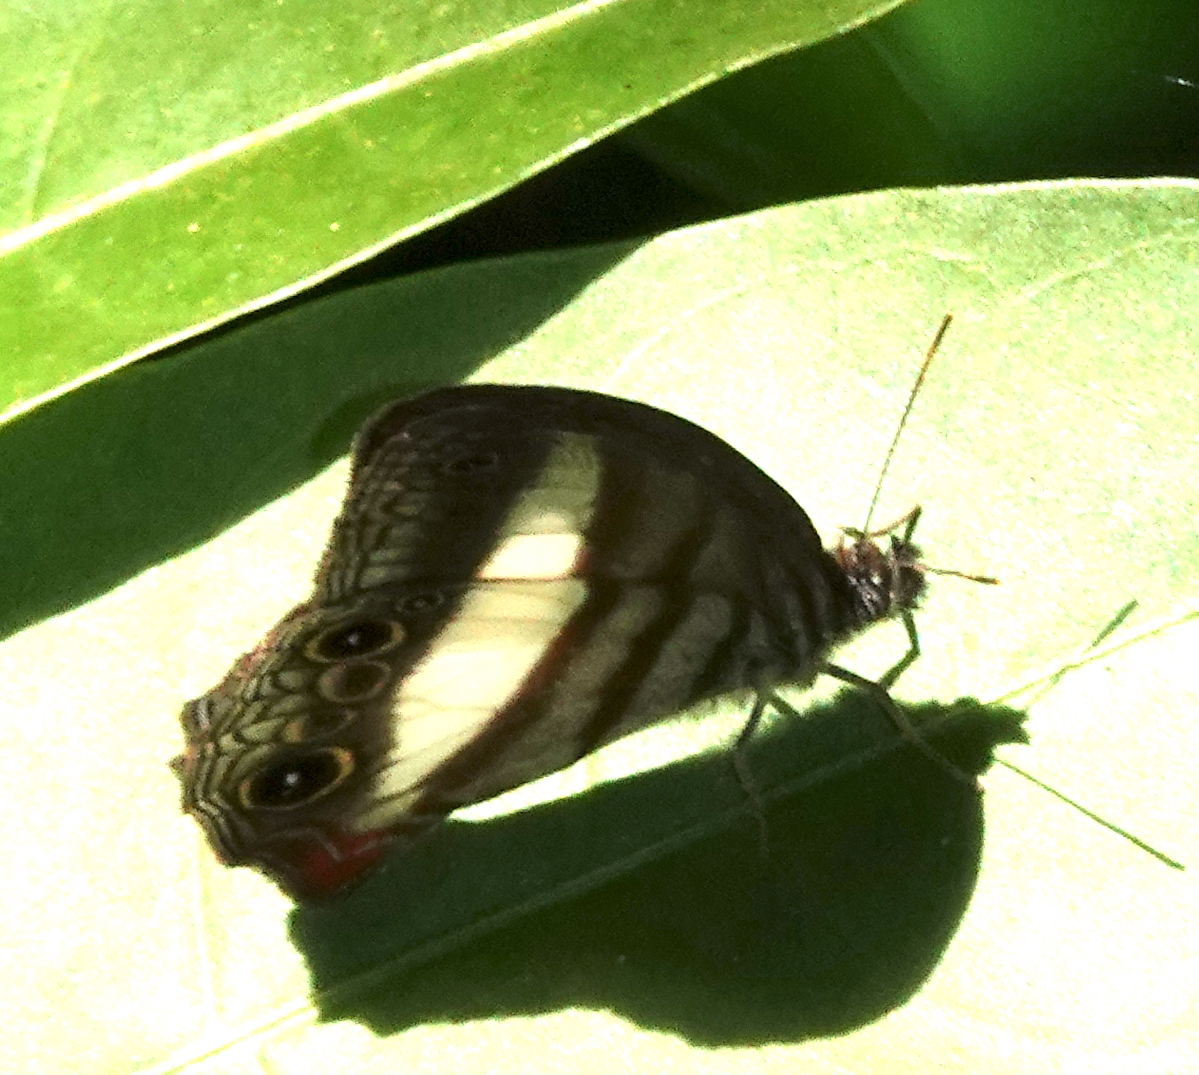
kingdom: Animalia
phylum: Arthropoda
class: Insecta
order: Lepidoptera
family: Nymphalidae
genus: Pareuptychia
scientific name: Pareuptychia metaleuca
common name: White-banded satyr
